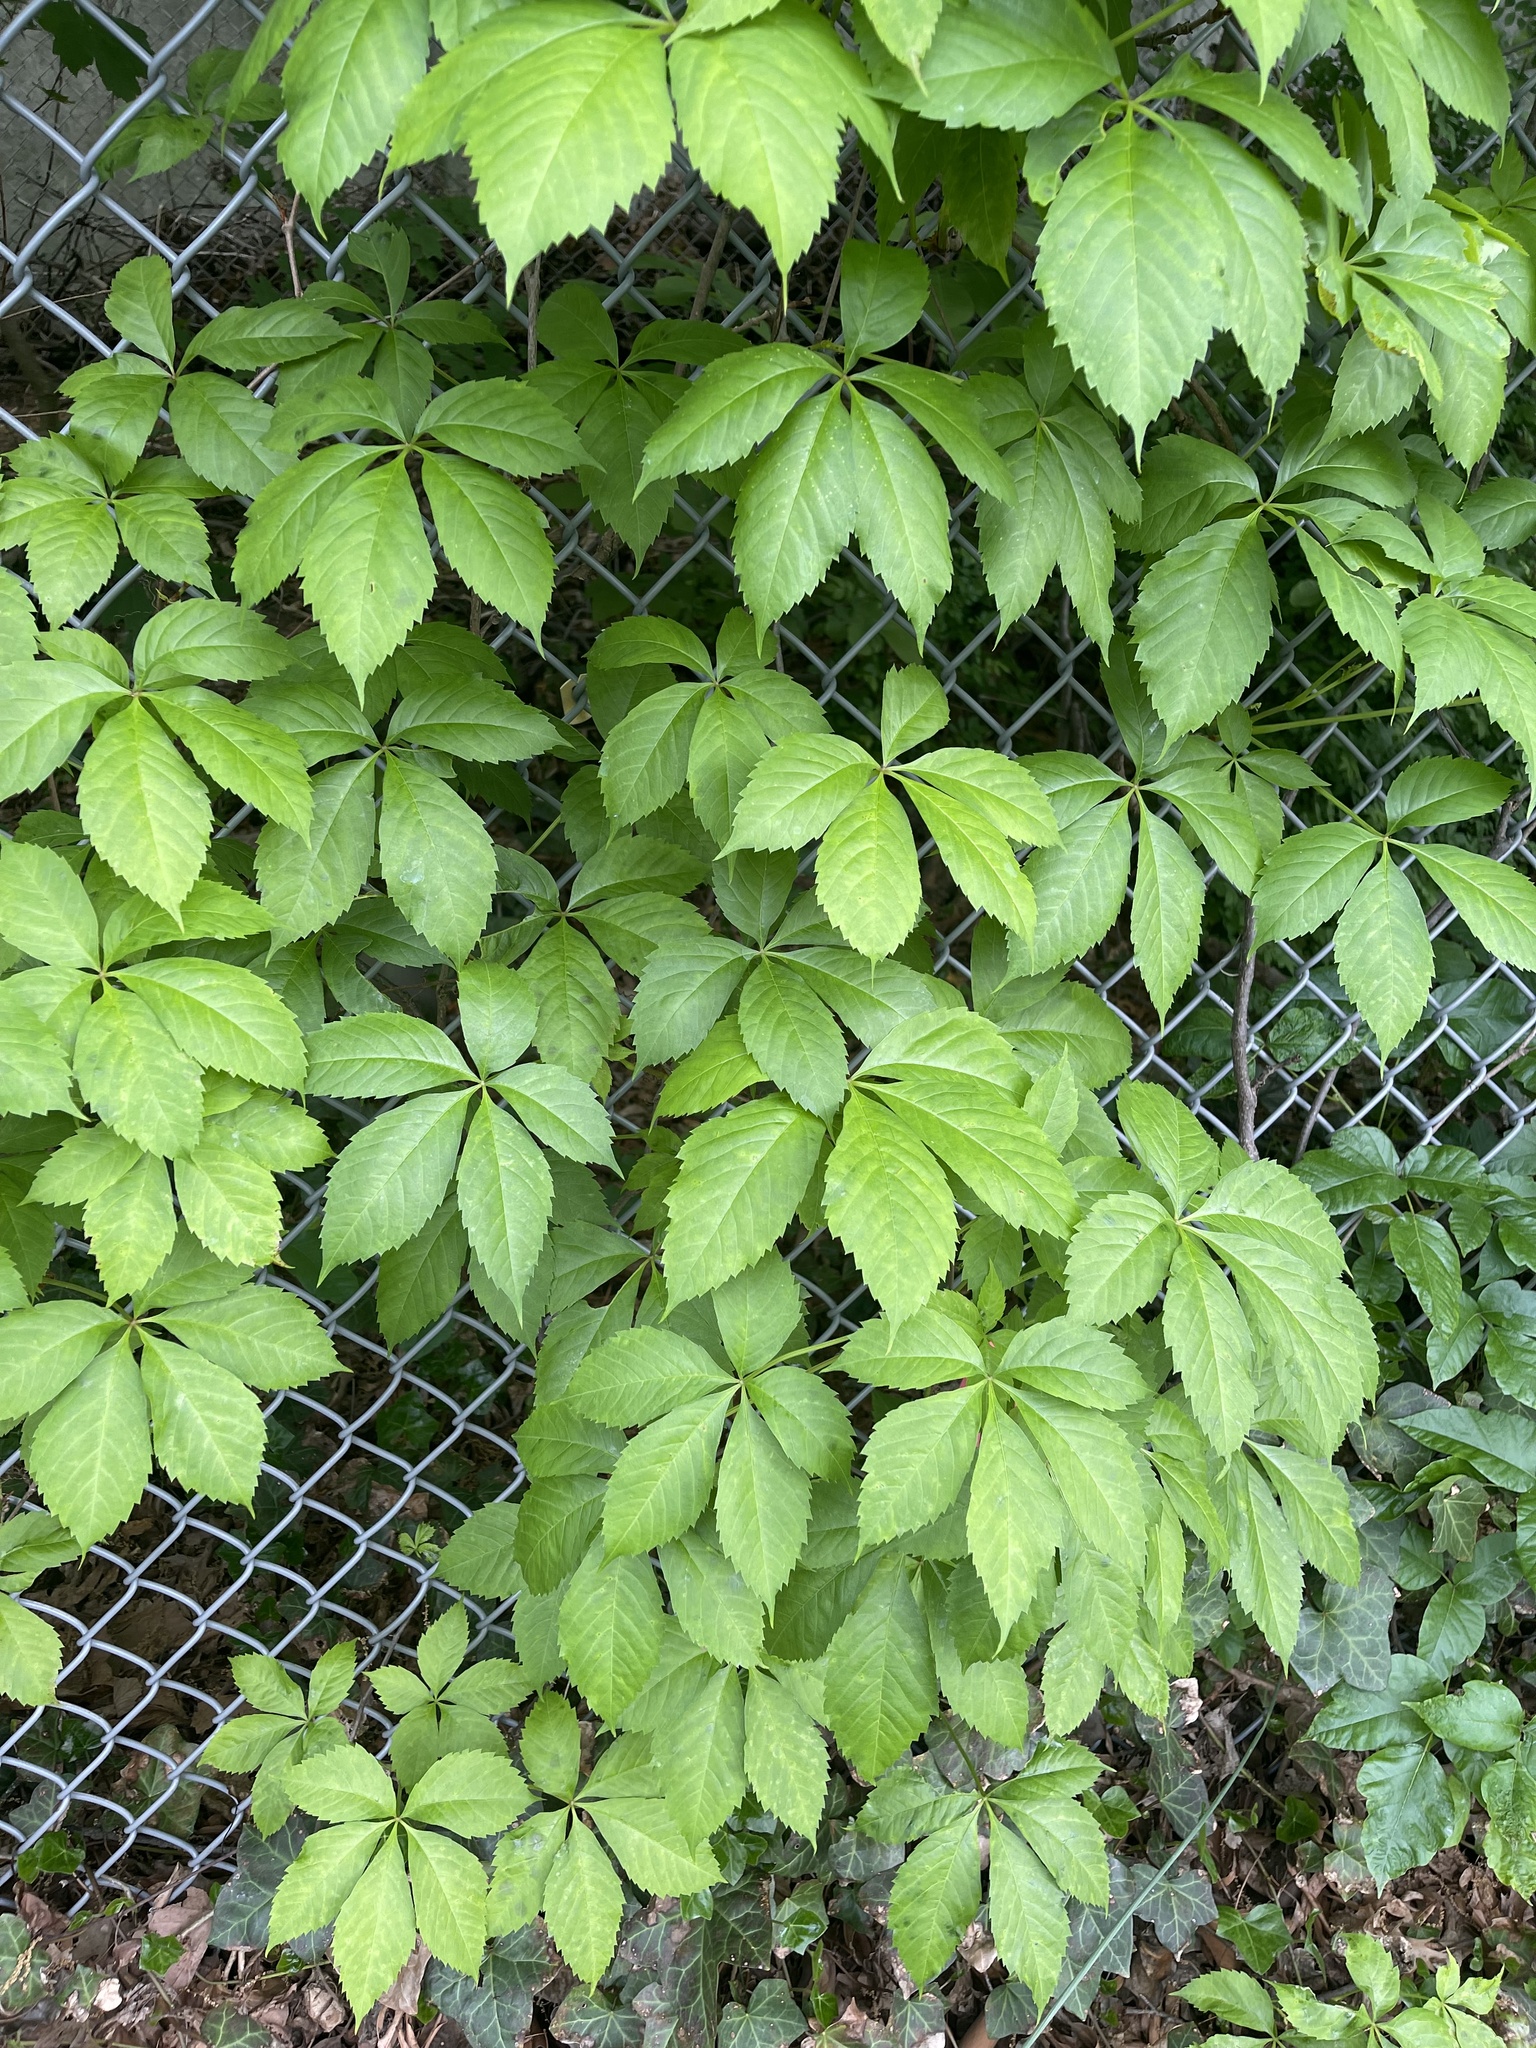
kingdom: Plantae
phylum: Tracheophyta
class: Magnoliopsida
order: Vitales
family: Vitaceae
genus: Parthenocissus
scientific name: Parthenocissus quinquefolia
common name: Virginia-creeper
